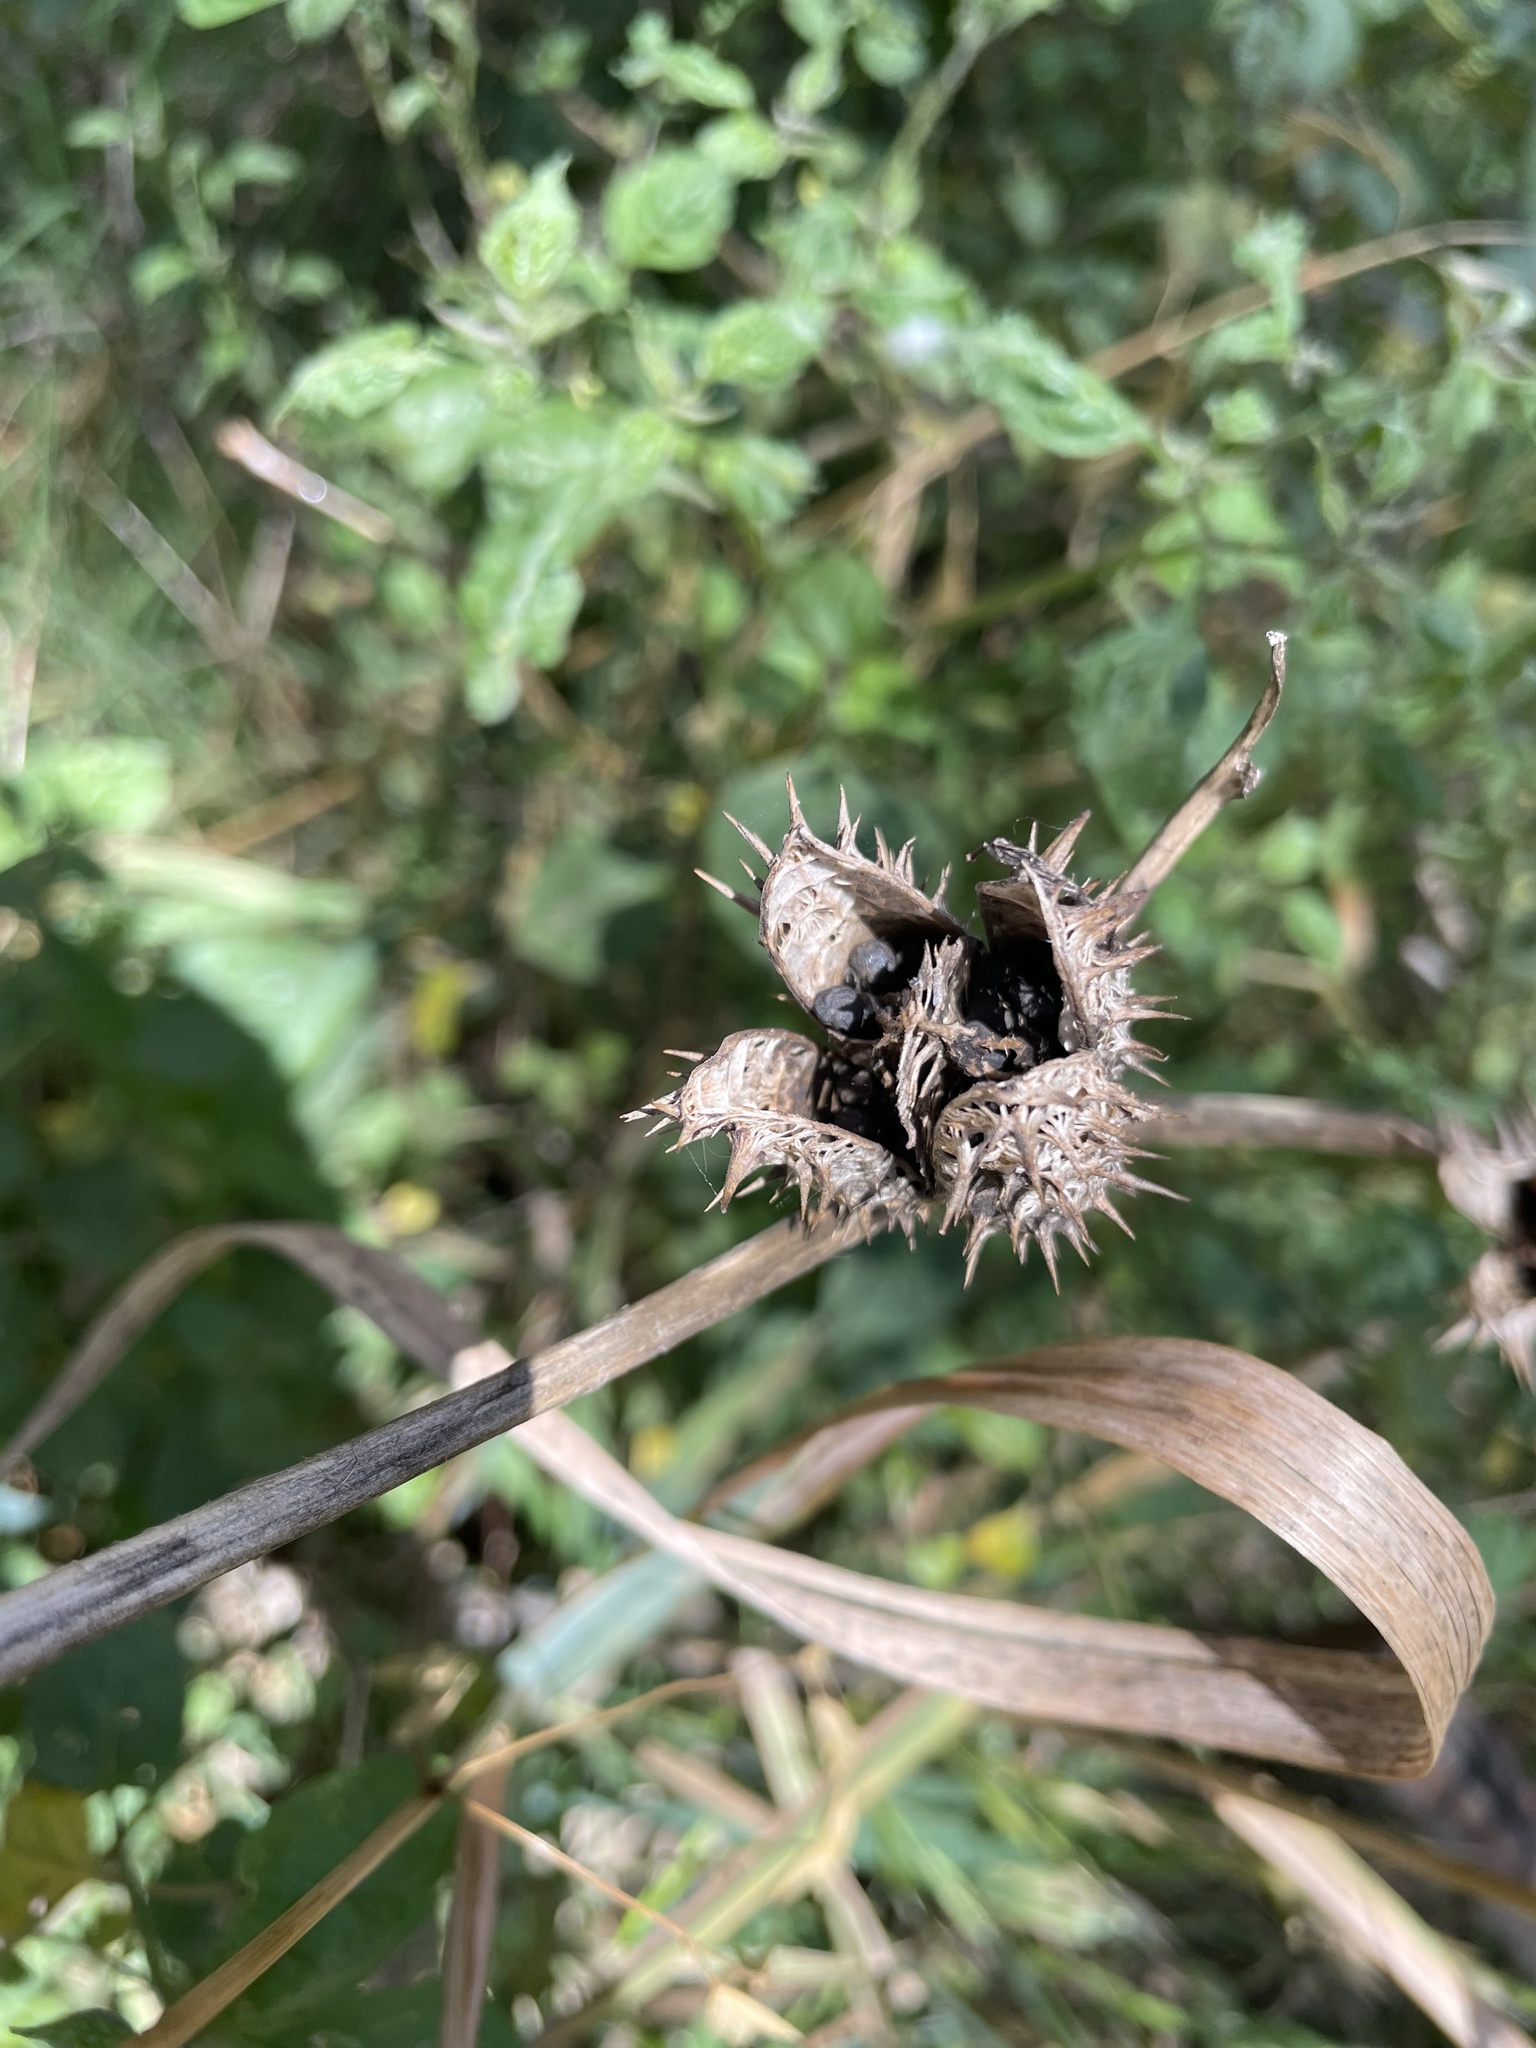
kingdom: Plantae
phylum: Tracheophyta
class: Magnoliopsida
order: Solanales
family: Solanaceae
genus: Datura
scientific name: Datura stramonium
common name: Thorn-apple
